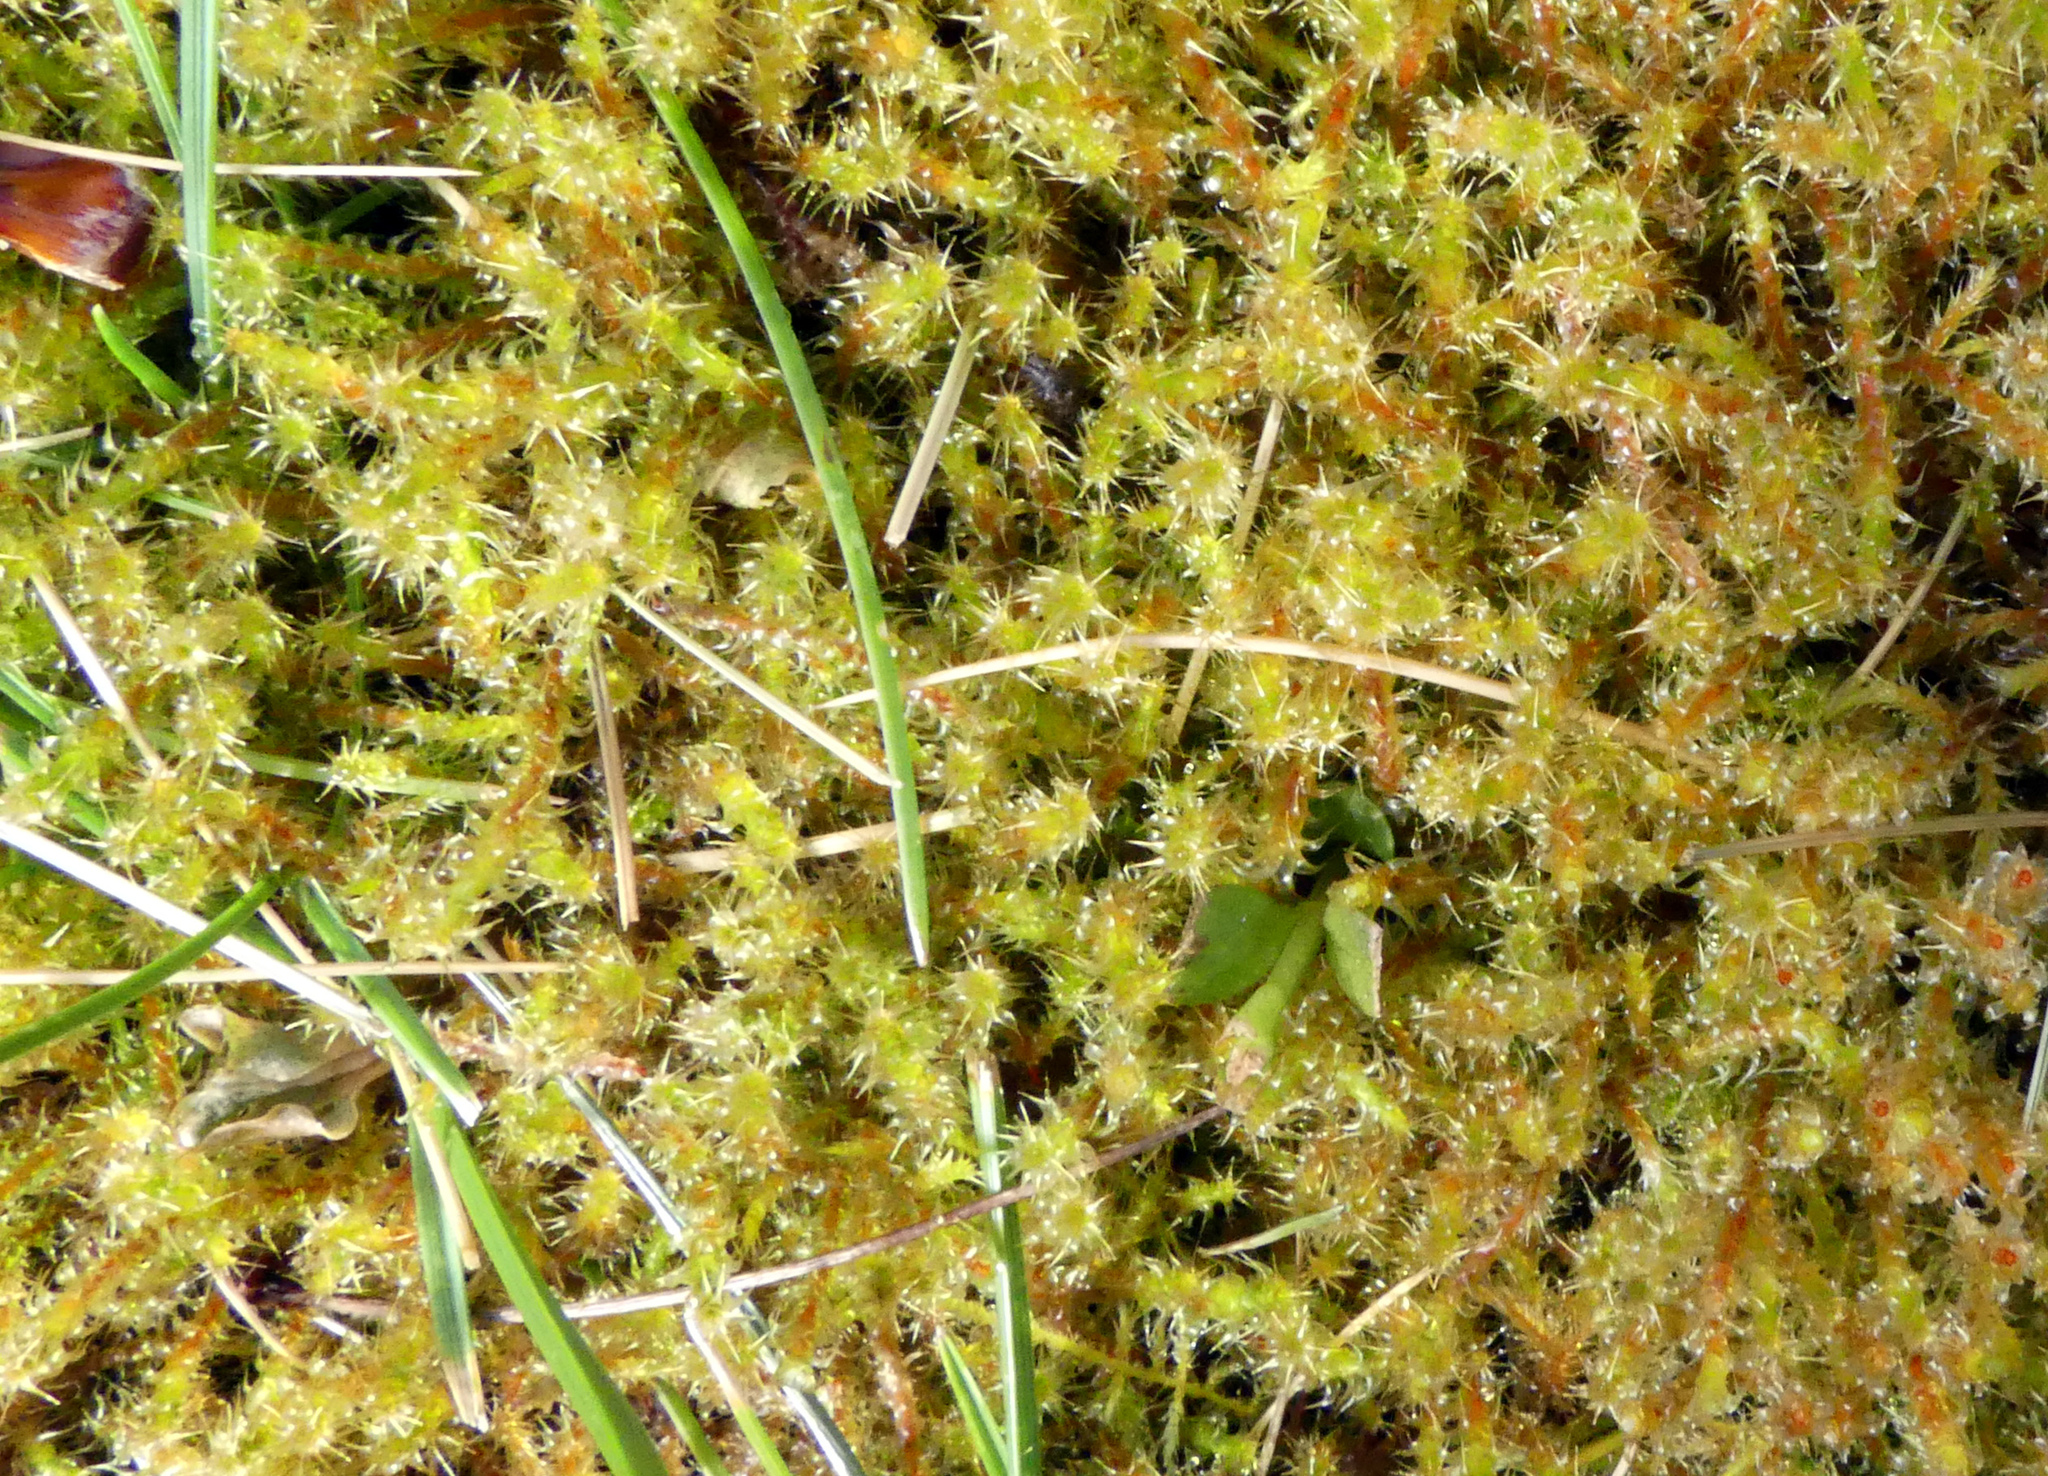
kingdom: Plantae
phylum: Bryophyta
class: Bryopsida
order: Hypnales
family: Hylocomiaceae
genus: Rhytidiadelphus
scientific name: Rhytidiadelphus squarrosus
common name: Springy turf-moss
